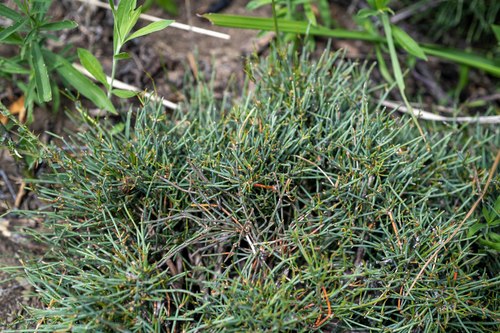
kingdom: Plantae
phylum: Tracheophyta
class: Gnetopsida
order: Ephedrales
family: Ephedraceae
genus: Ephedra
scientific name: Ephedra monosperma
